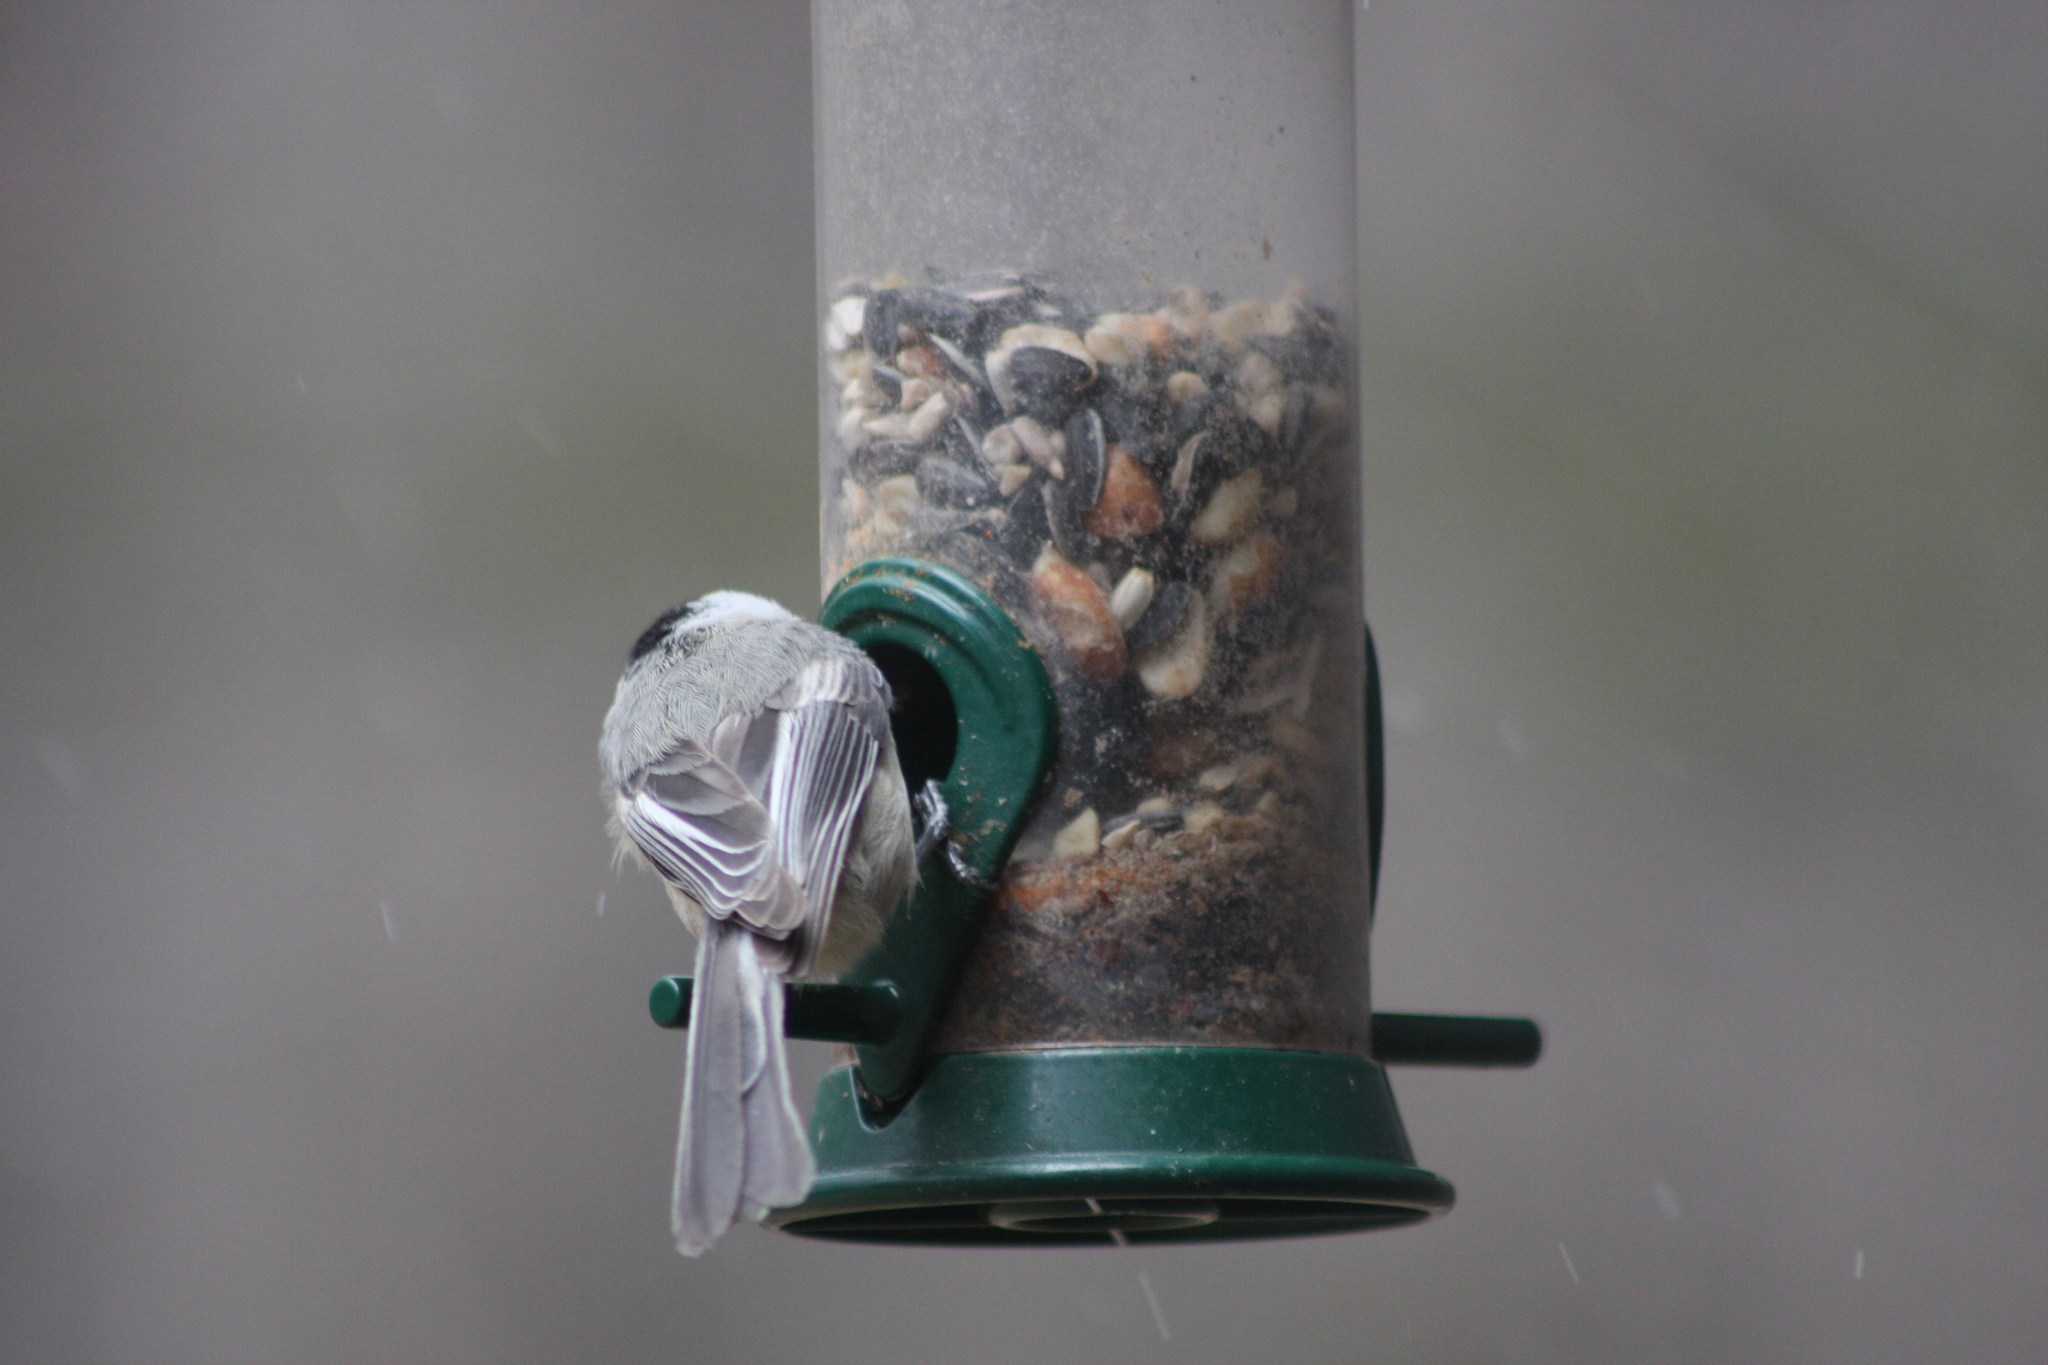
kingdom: Animalia
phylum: Chordata
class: Aves
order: Passeriformes
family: Paridae
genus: Poecile
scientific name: Poecile atricapillus
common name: Black-capped chickadee
